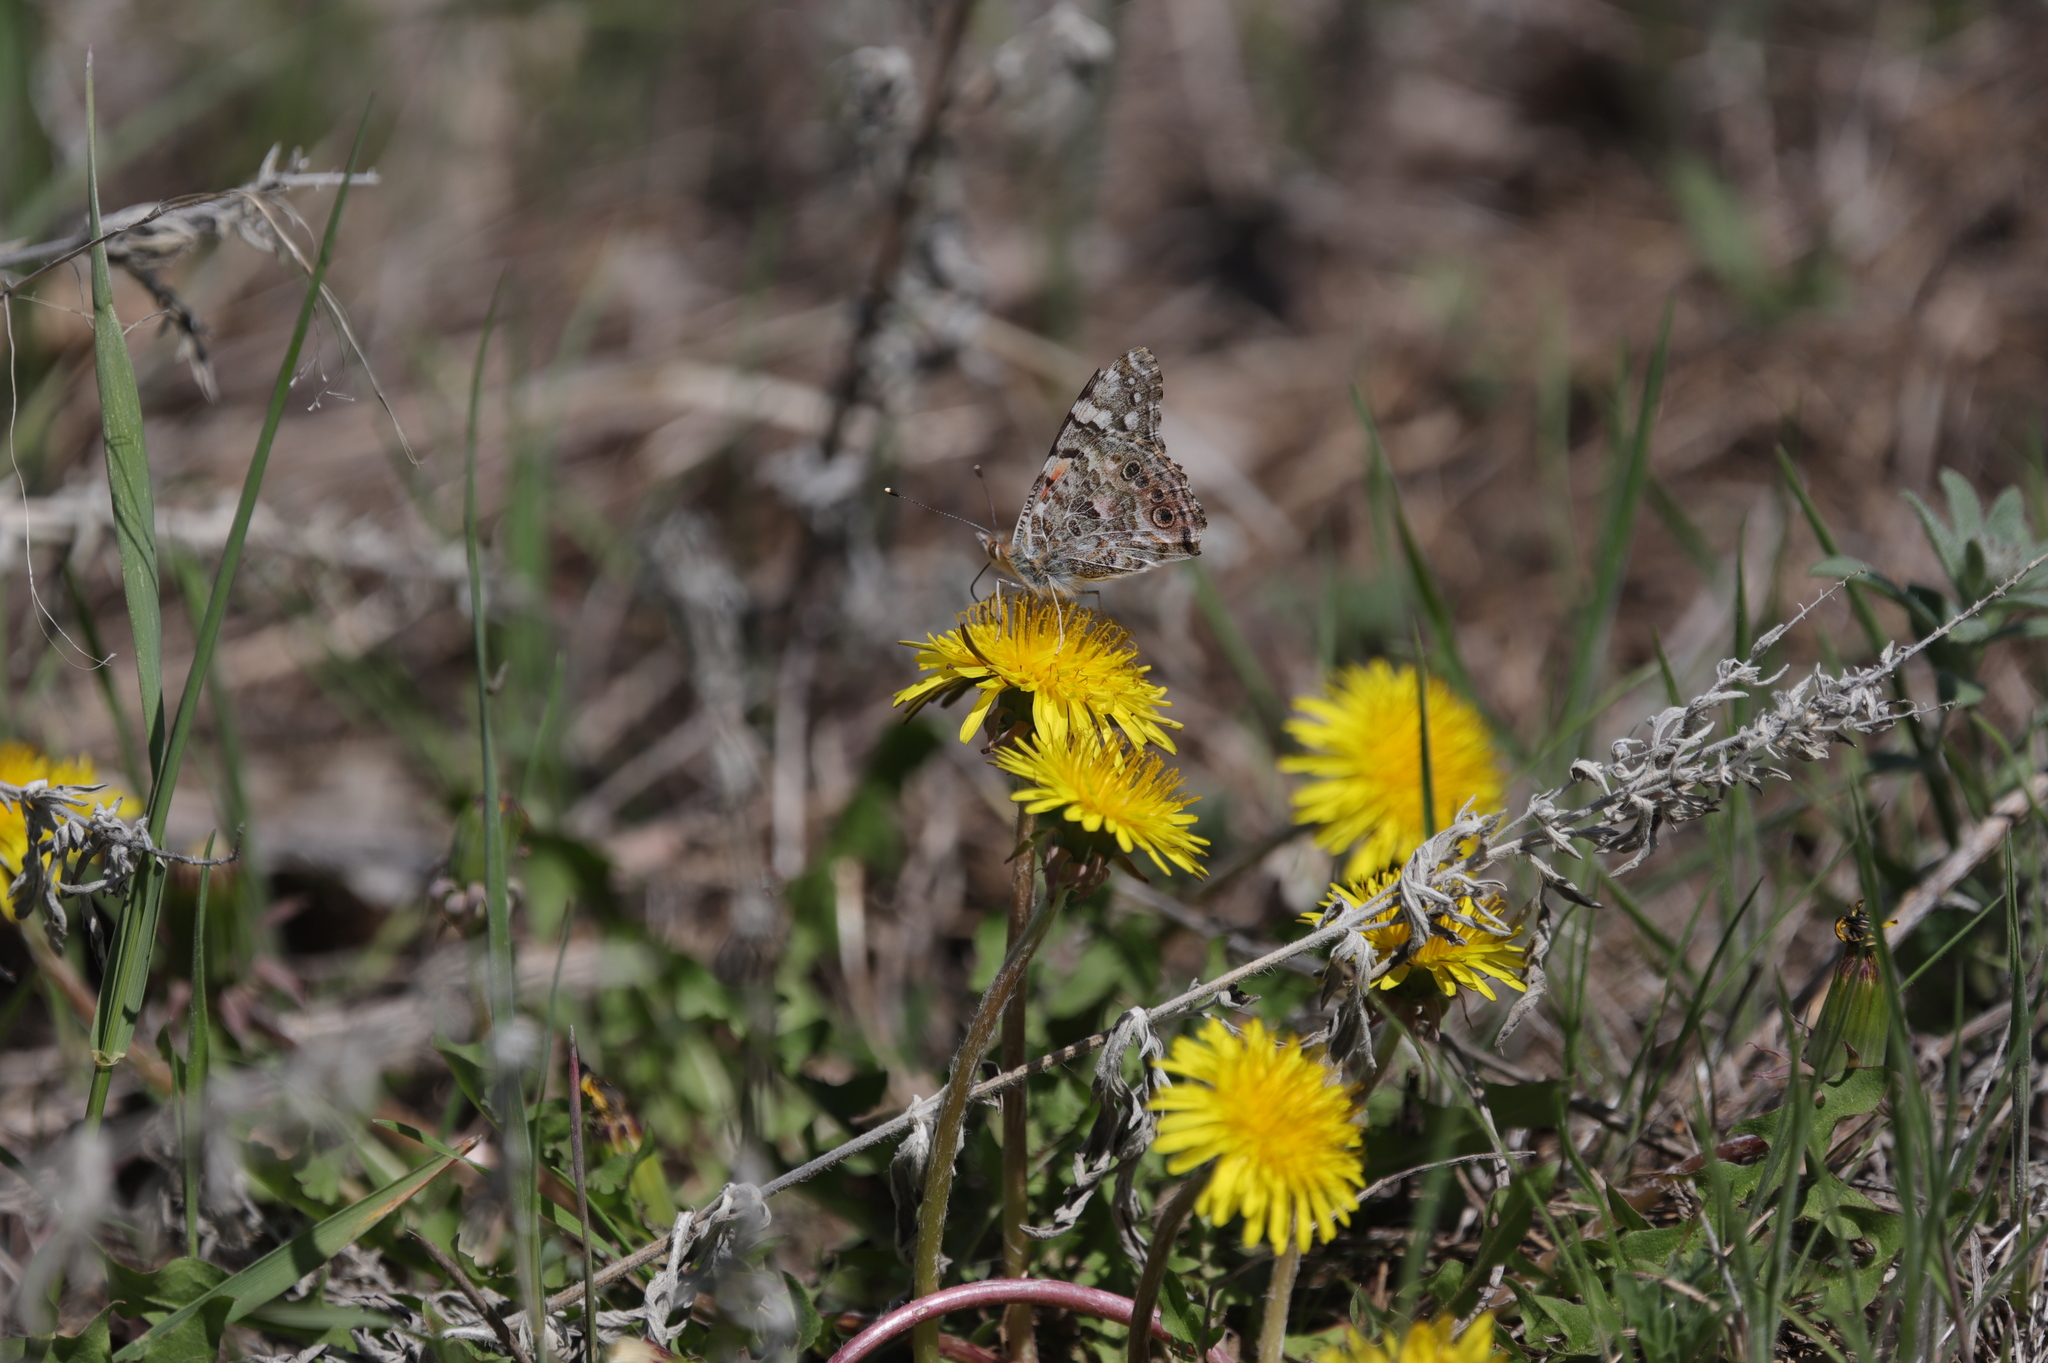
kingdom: Plantae
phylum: Tracheophyta
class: Magnoliopsida
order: Asterales
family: Asteraceae
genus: Taraxacum
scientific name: Taraxacum officinale
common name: Common dandelion
